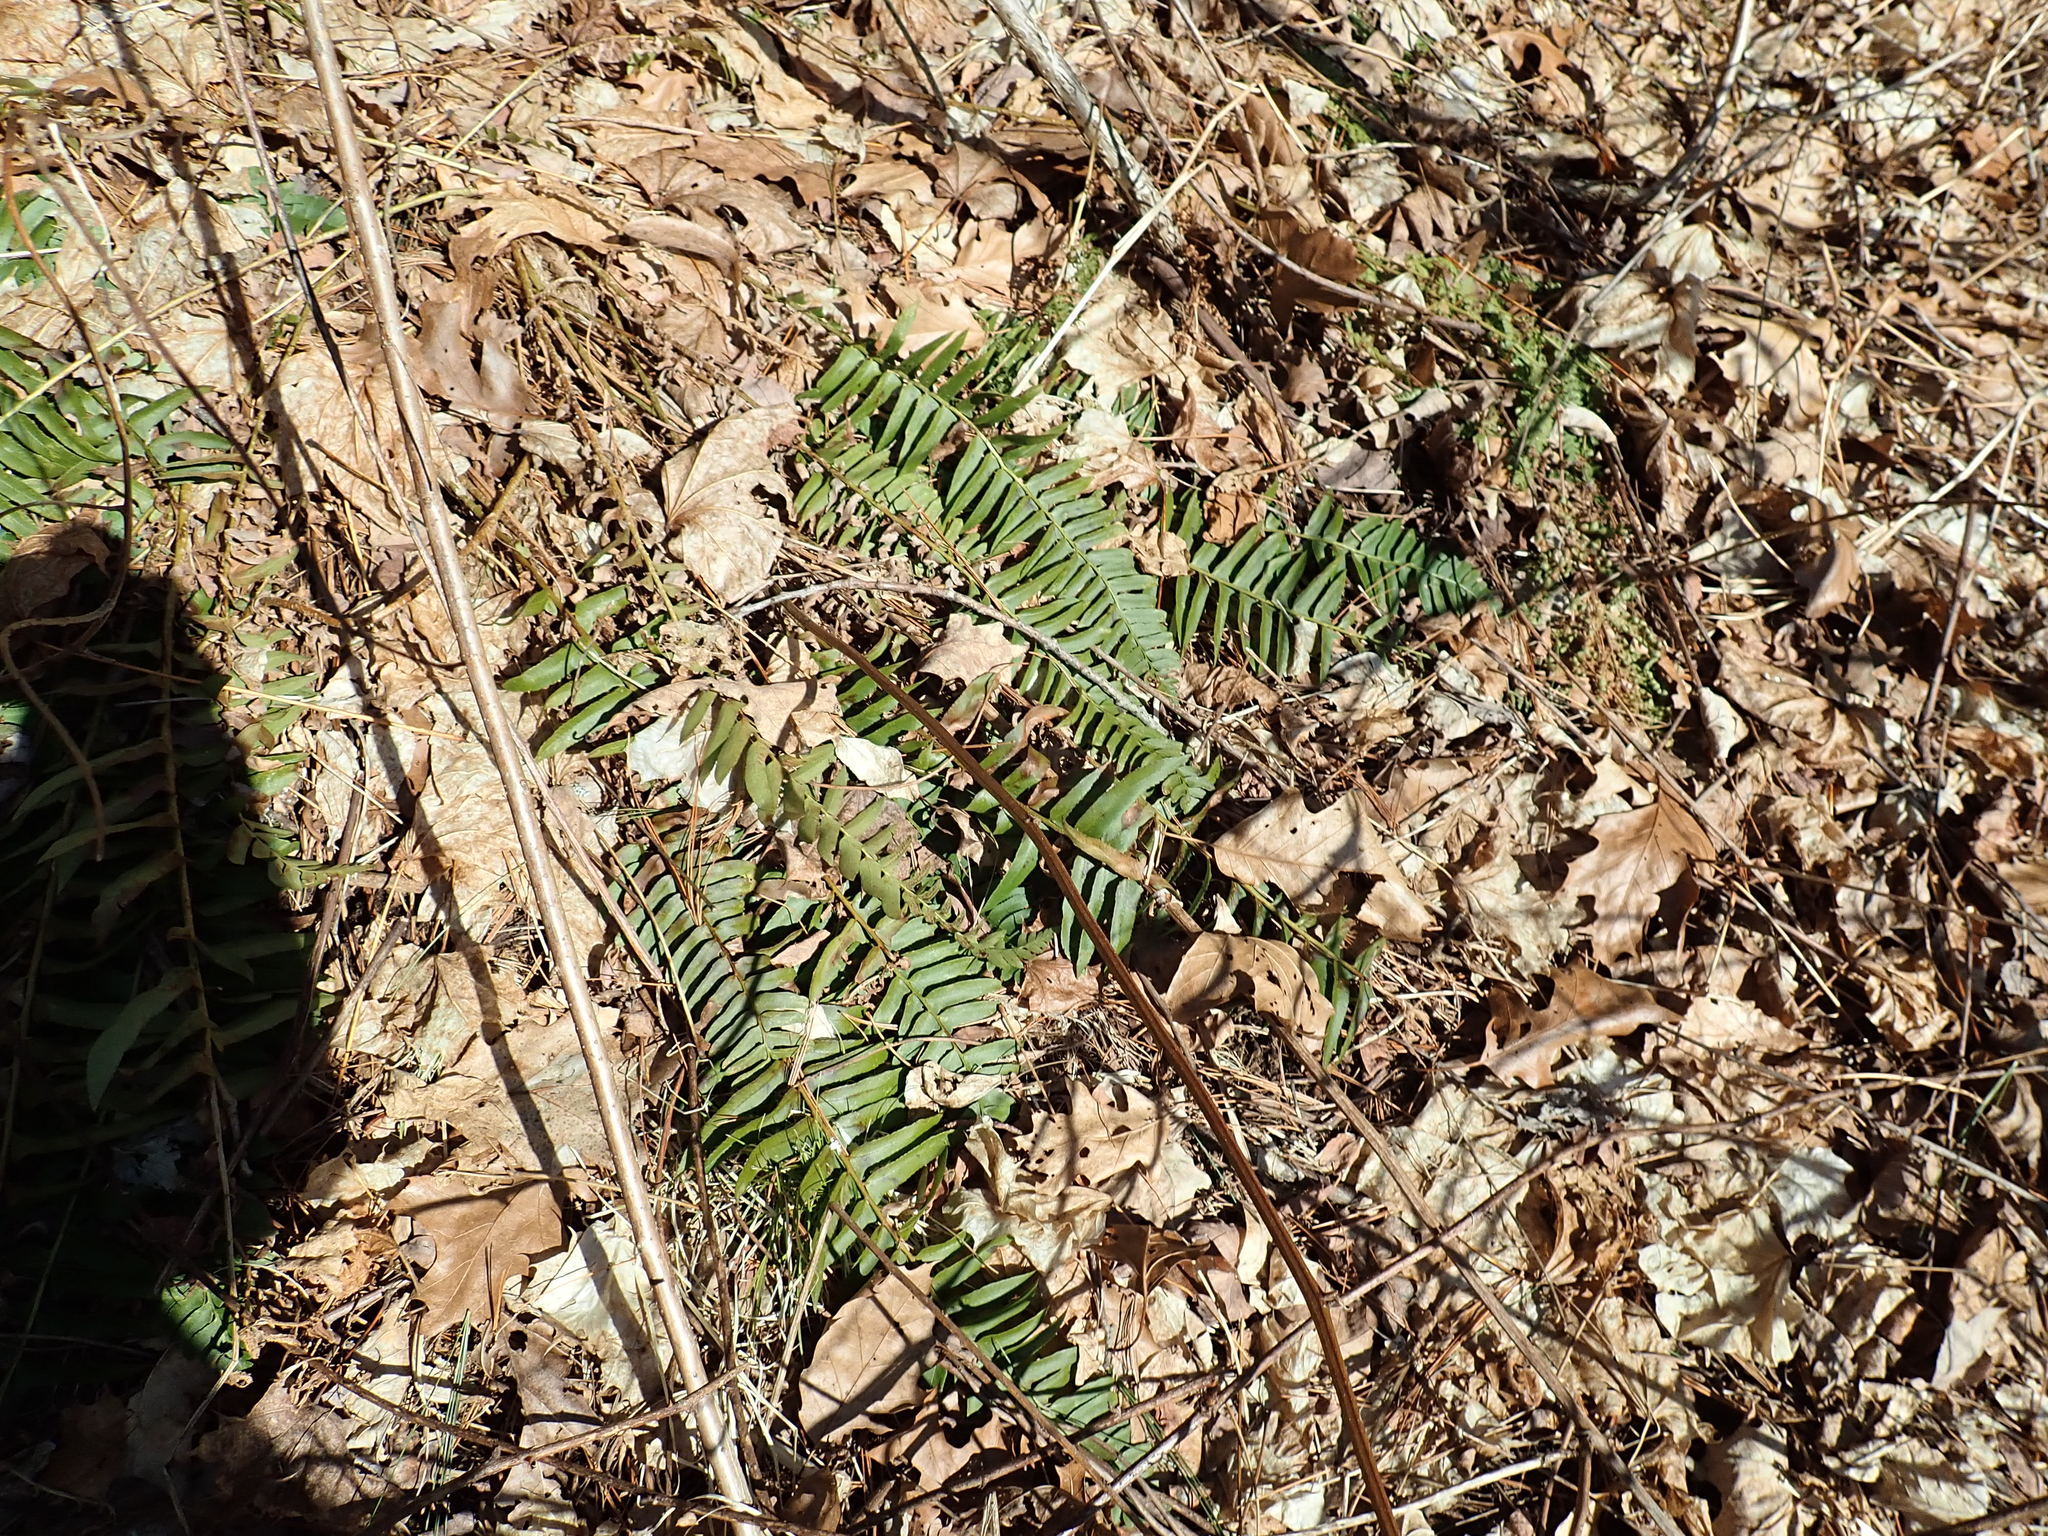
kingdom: Plantae
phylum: Tracheophyta
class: Polypodiopsida
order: Polypodiales
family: Dryopteridaceae
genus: Polystichum
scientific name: Polystichum acrostichoides
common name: Christmas fern
